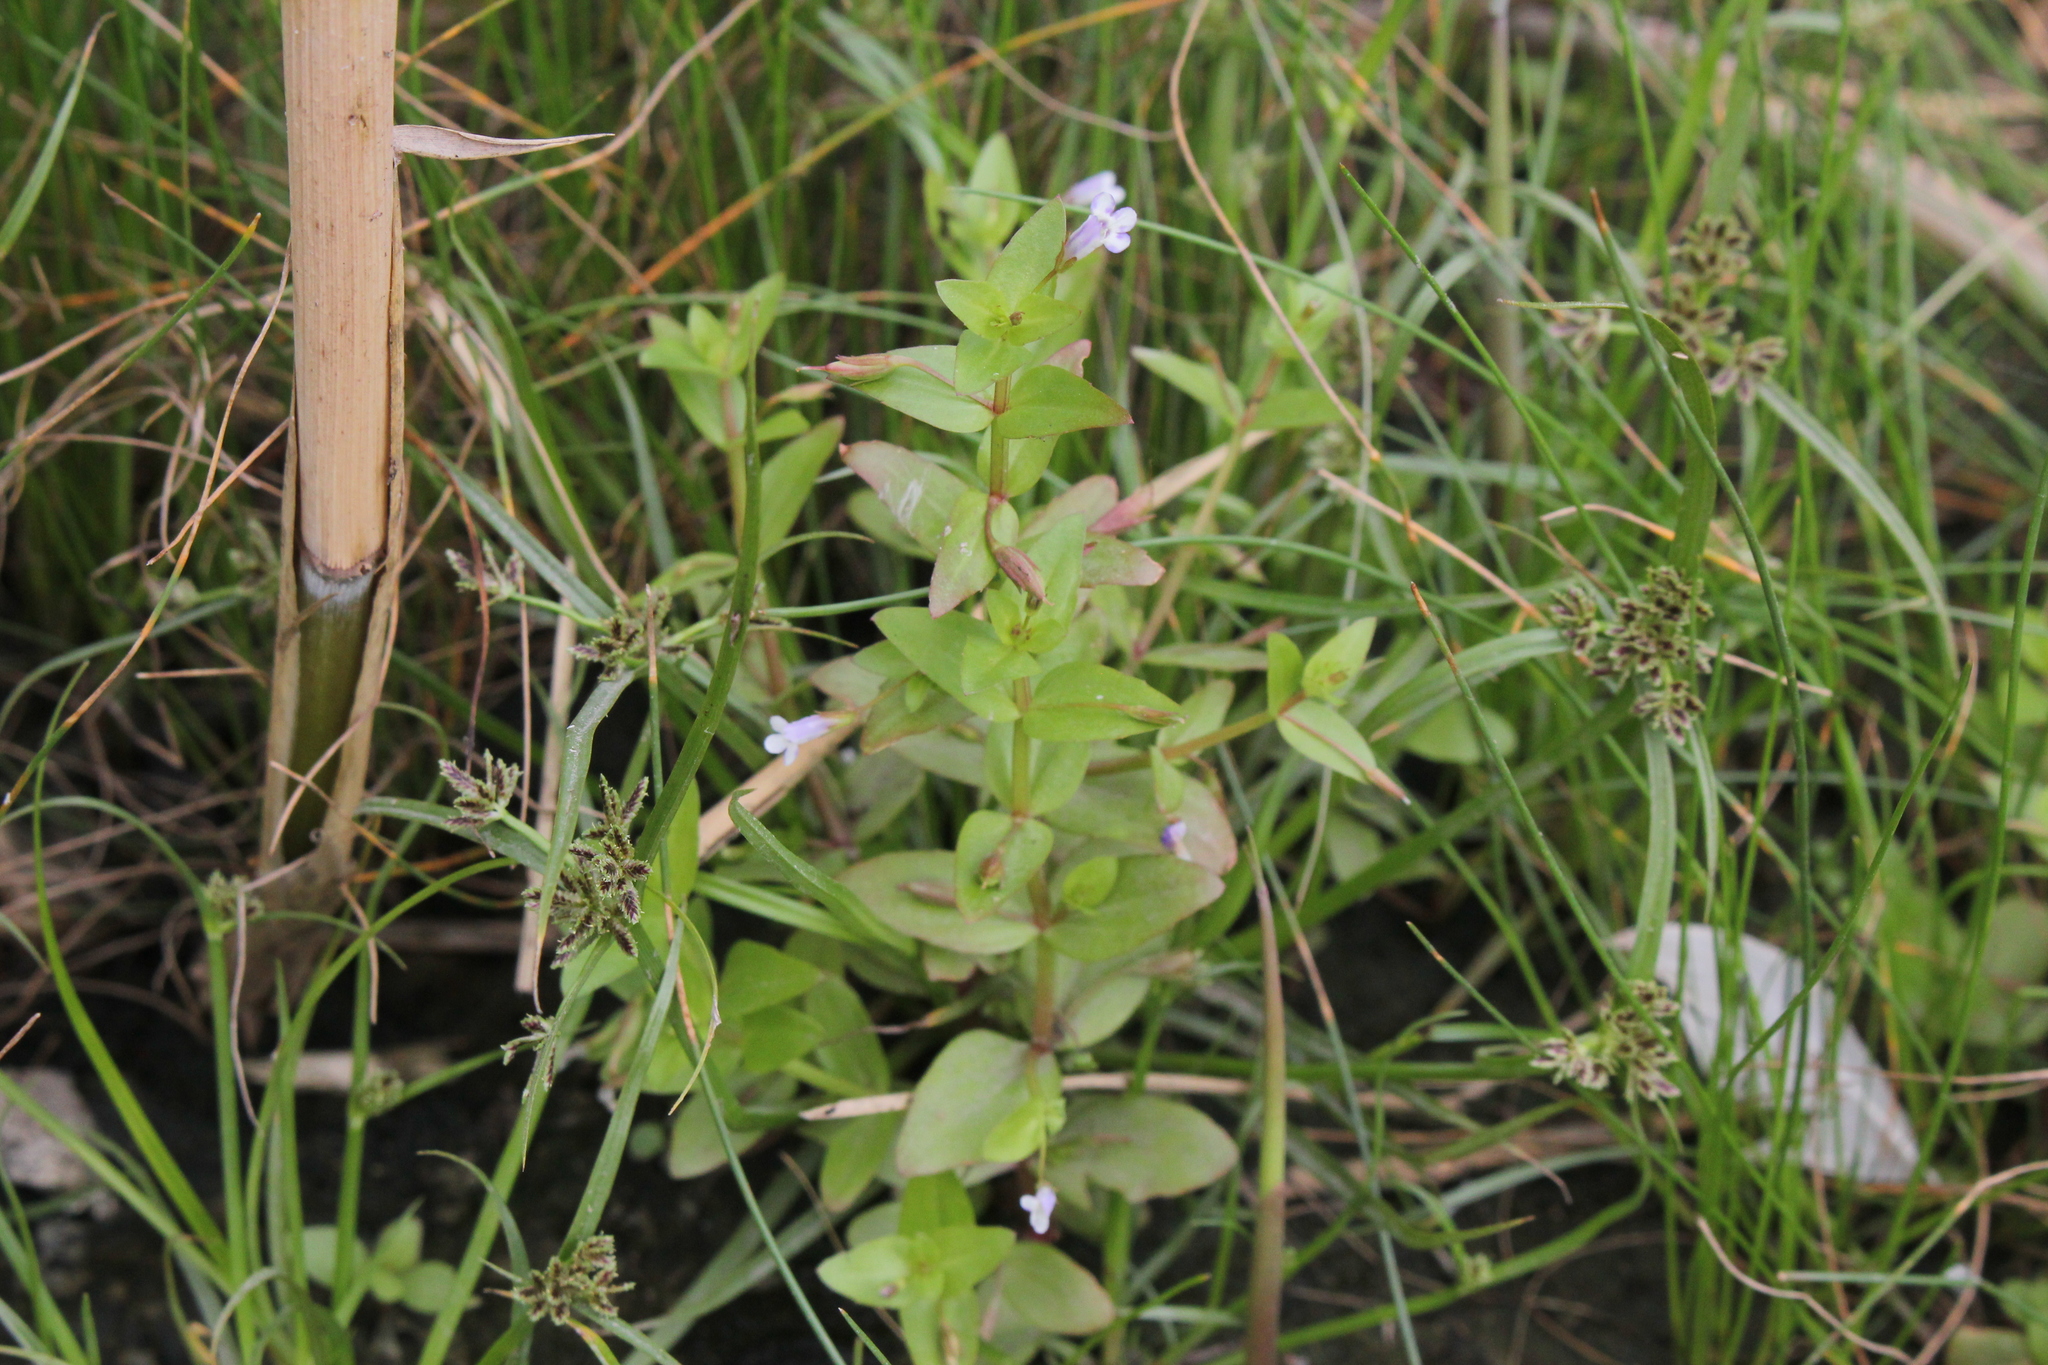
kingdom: Plantae
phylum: Tracheophyta
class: Magnoliopsida
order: Lamiales
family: Linderniaceae
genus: Lindernia
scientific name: Lindernia dubia
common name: Annual false pimpernel
